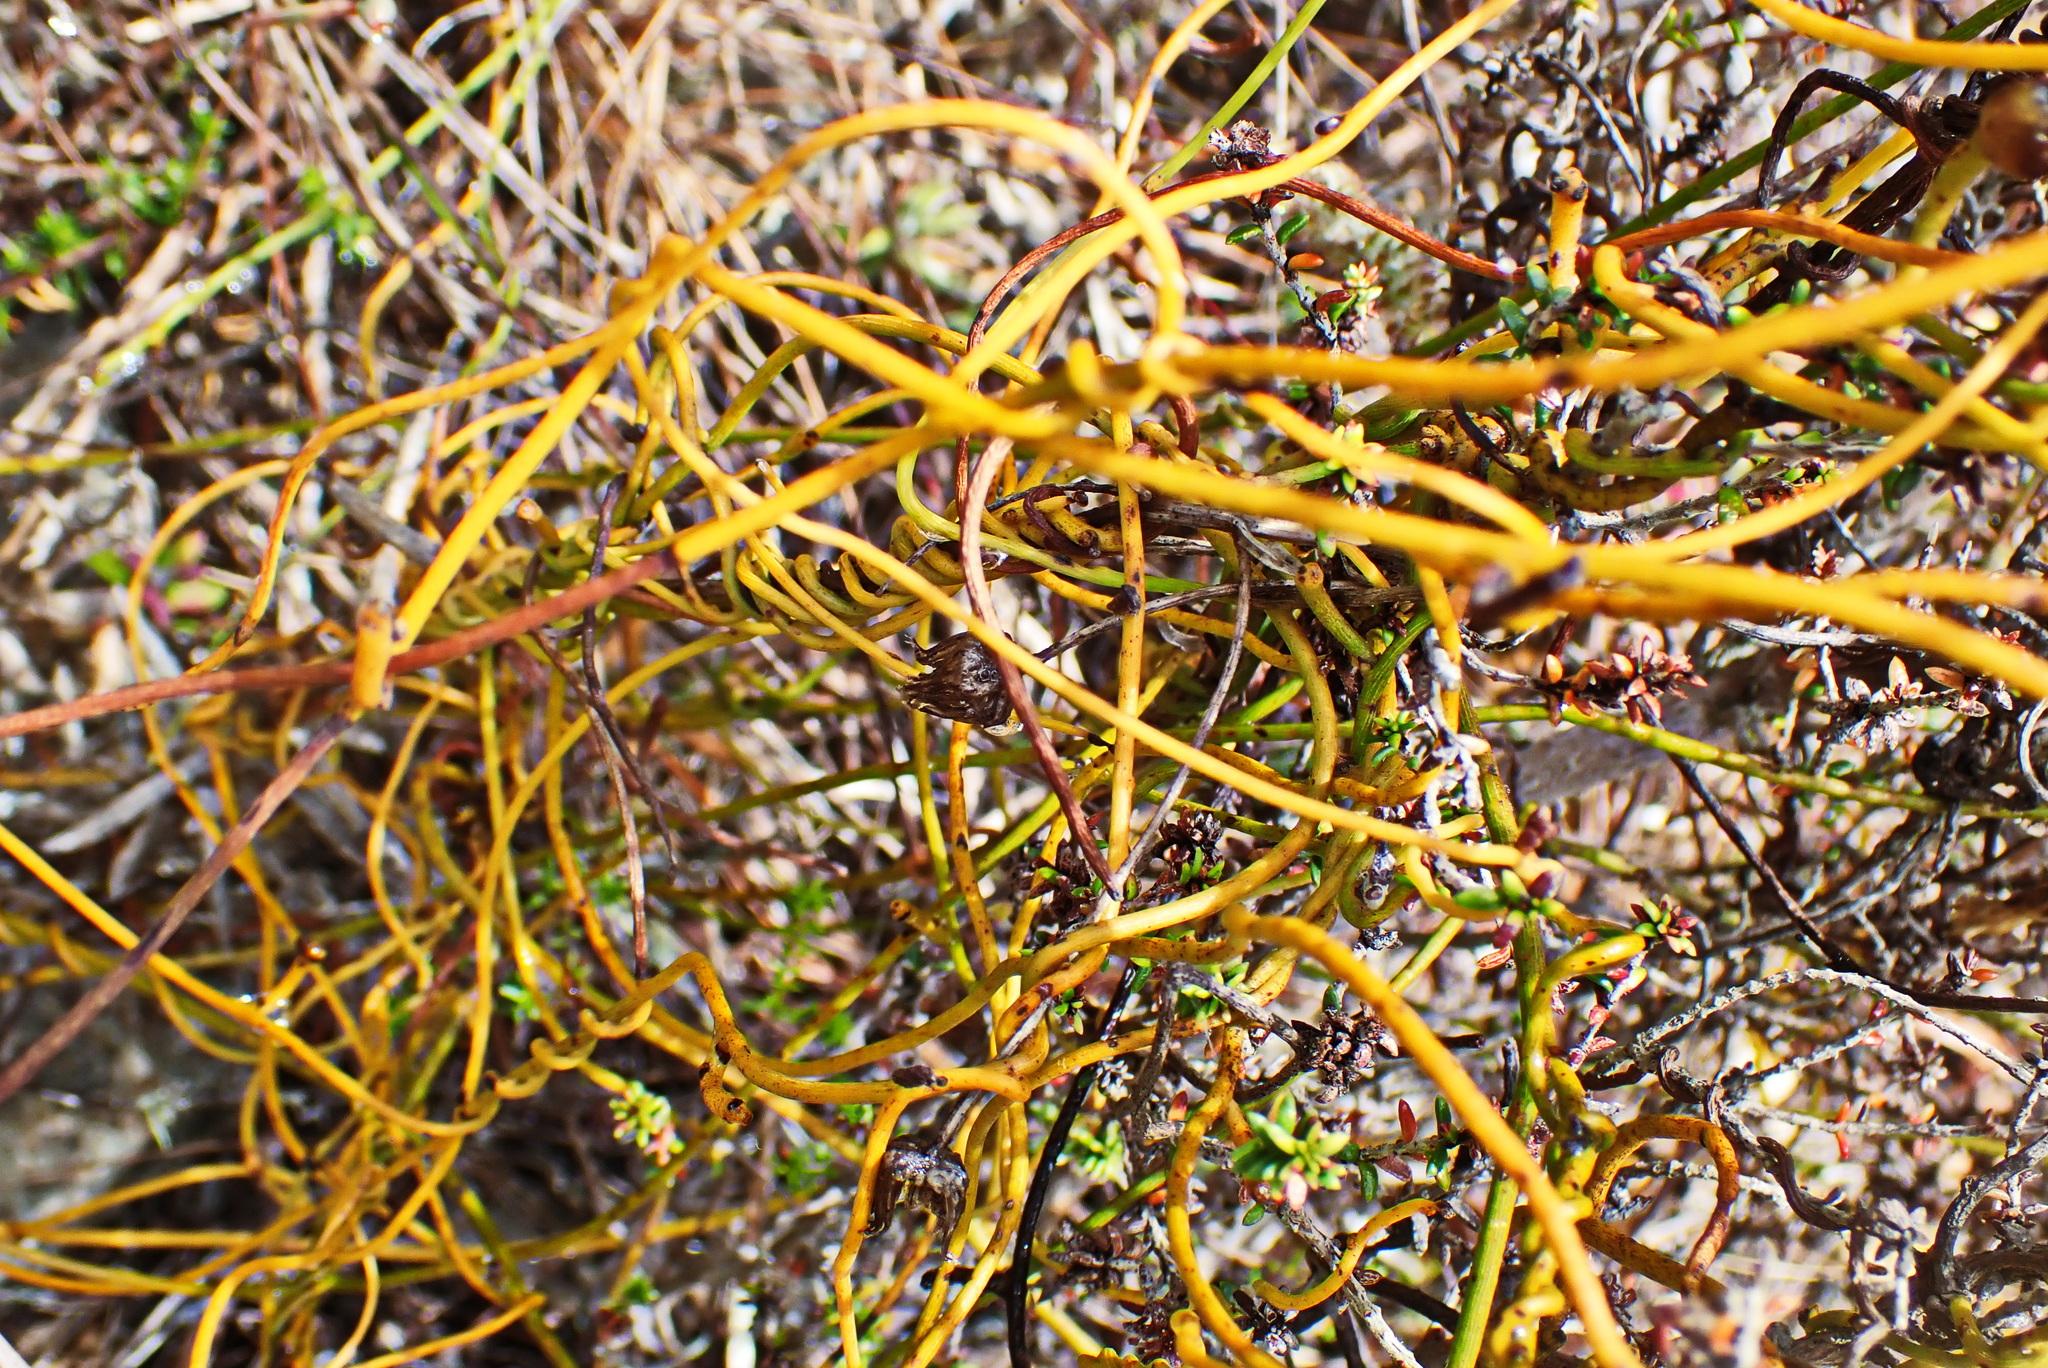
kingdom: Plantae
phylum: Tracheophyta
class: Magnoliopsida
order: Laurales
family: Lauraceae
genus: Cassytha
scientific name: Cassytha ciliolata
